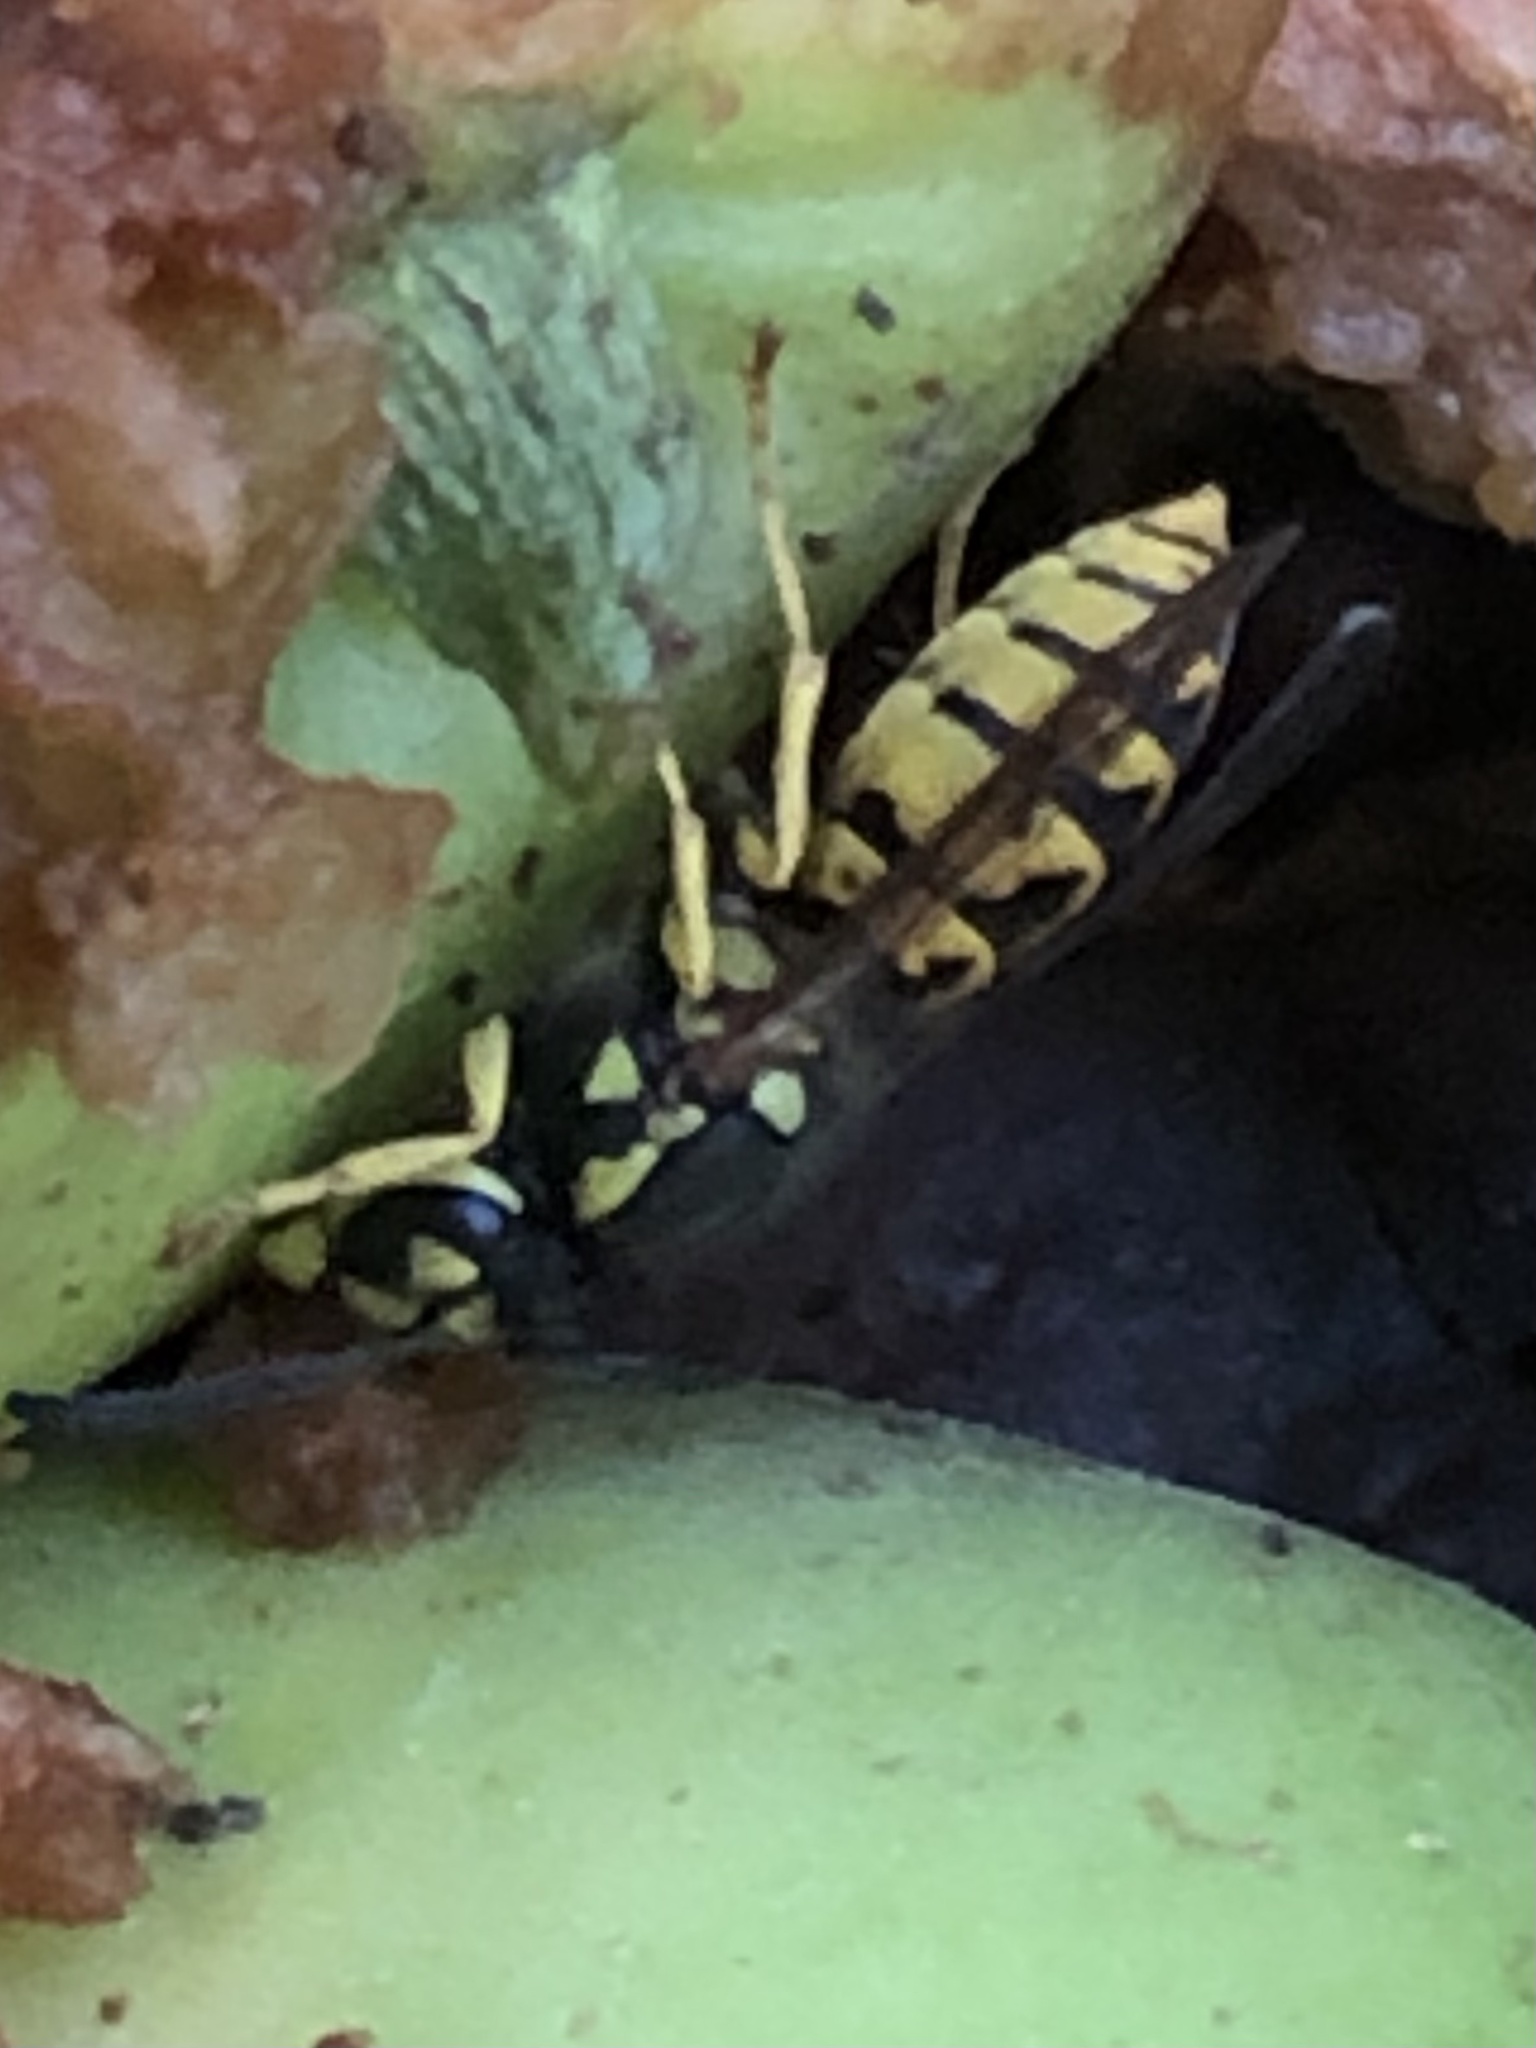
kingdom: Animalia
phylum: Arthropoda
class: Insecta
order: Hymenoptera
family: Vespidae
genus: Vespula
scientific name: Vespula germanica
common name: German wasp
